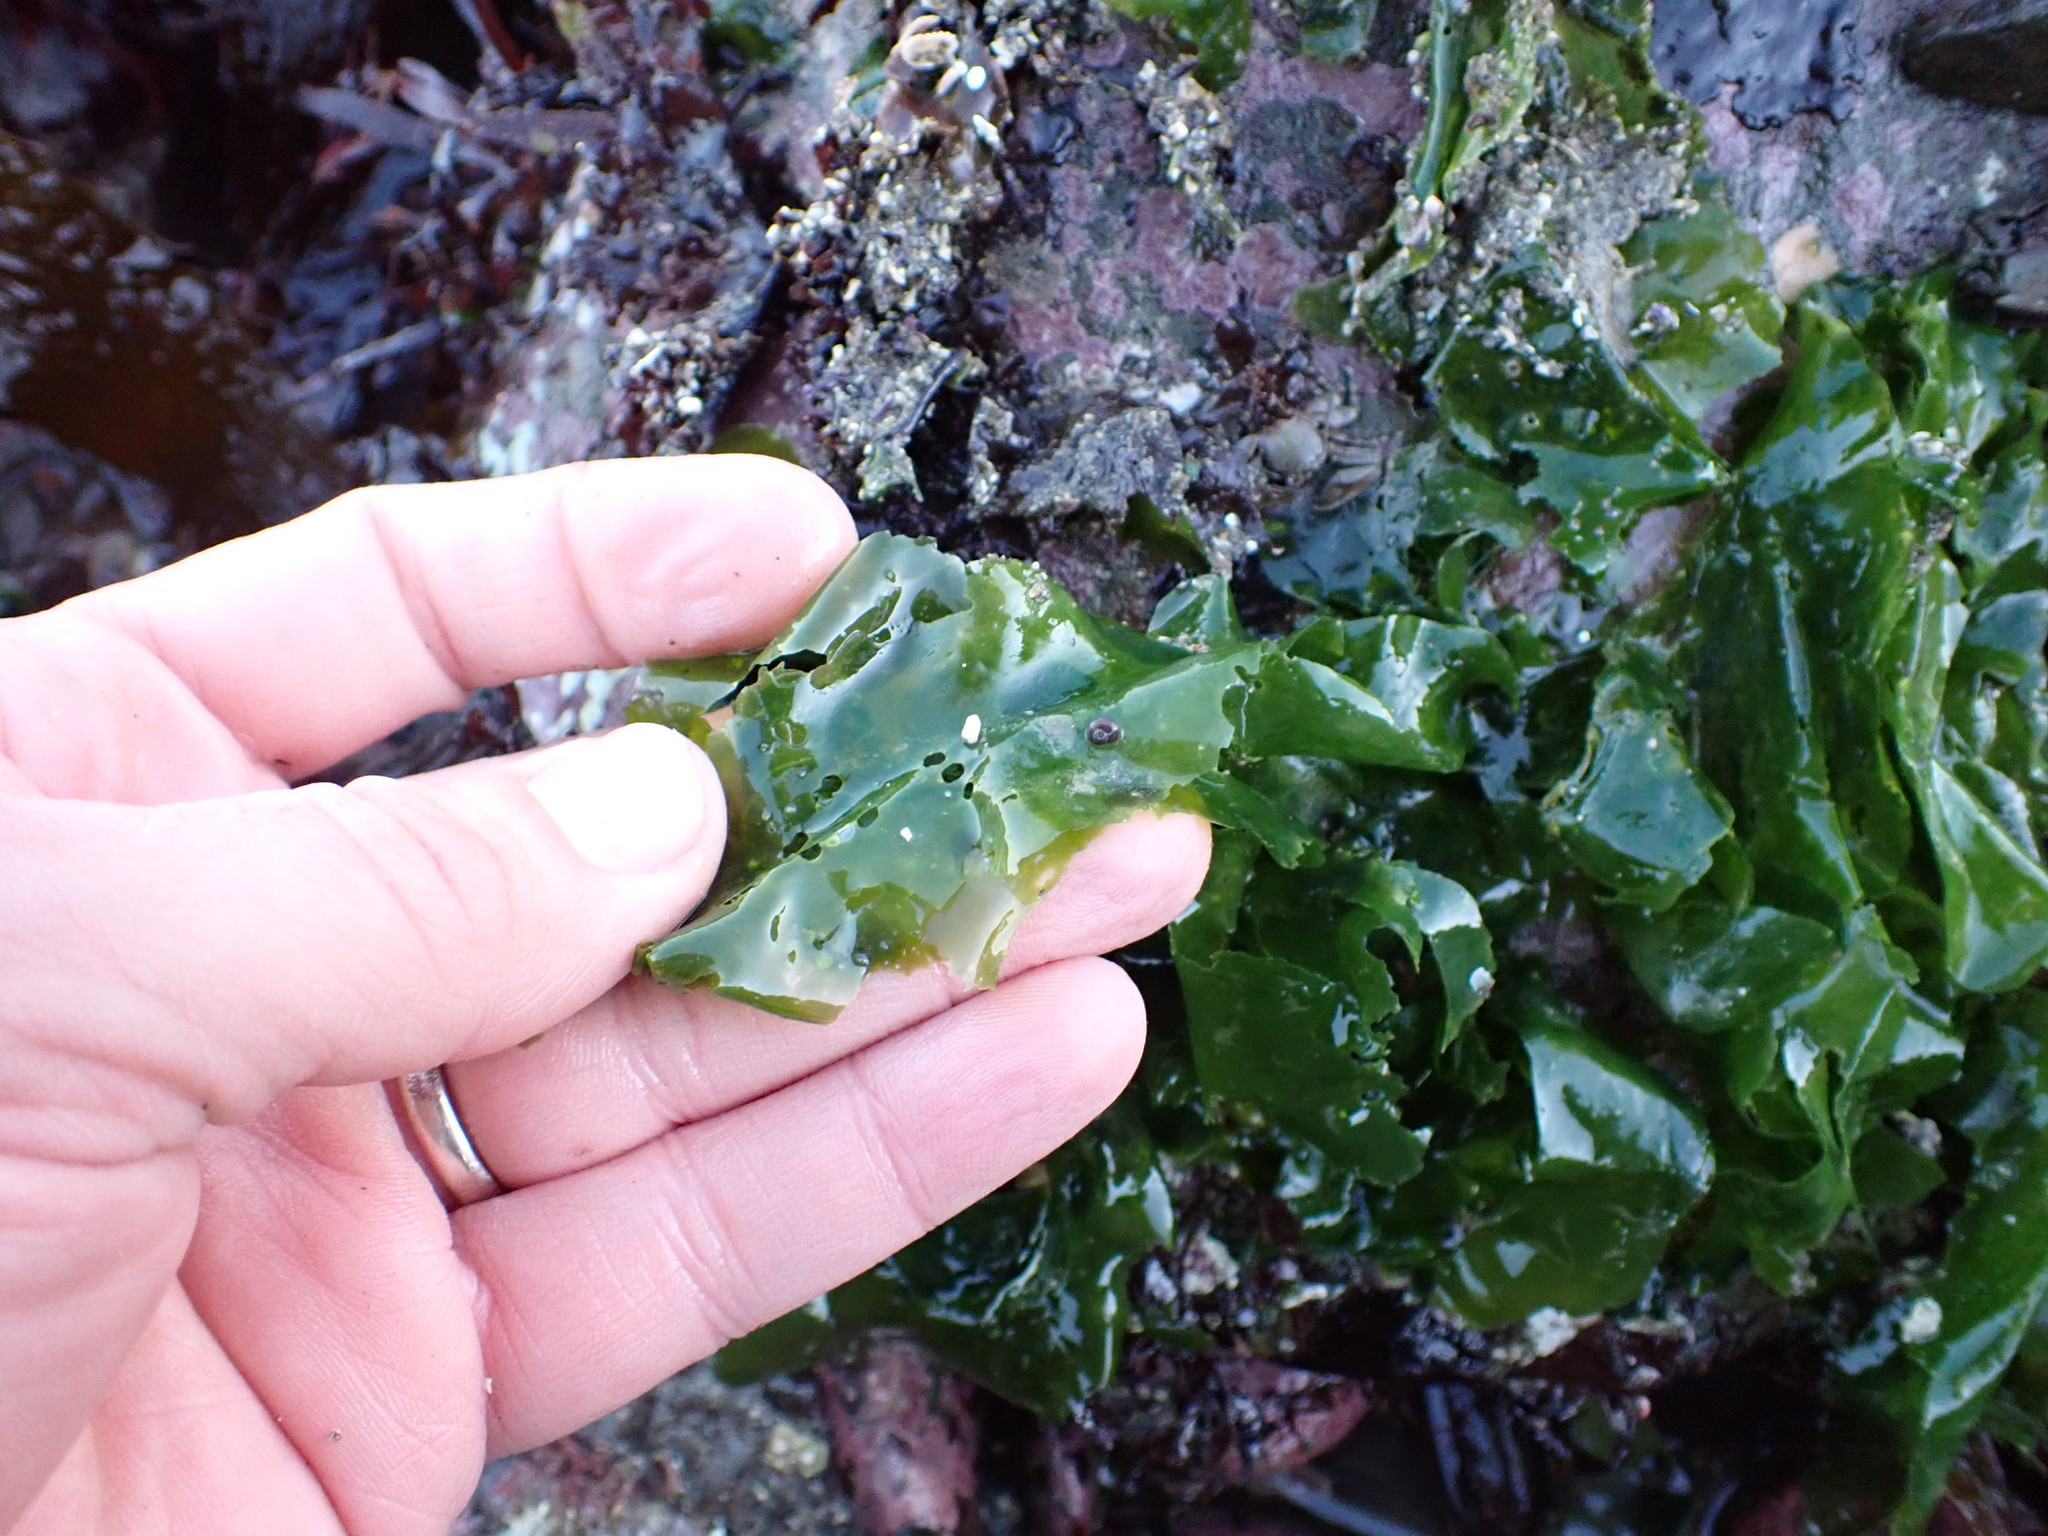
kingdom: Plantae
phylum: Chlorophyta
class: Ulvophyceae
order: Ulvales
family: Ulvaceae
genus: Ulva
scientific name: Ulva lactuca
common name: Sea lettuce
